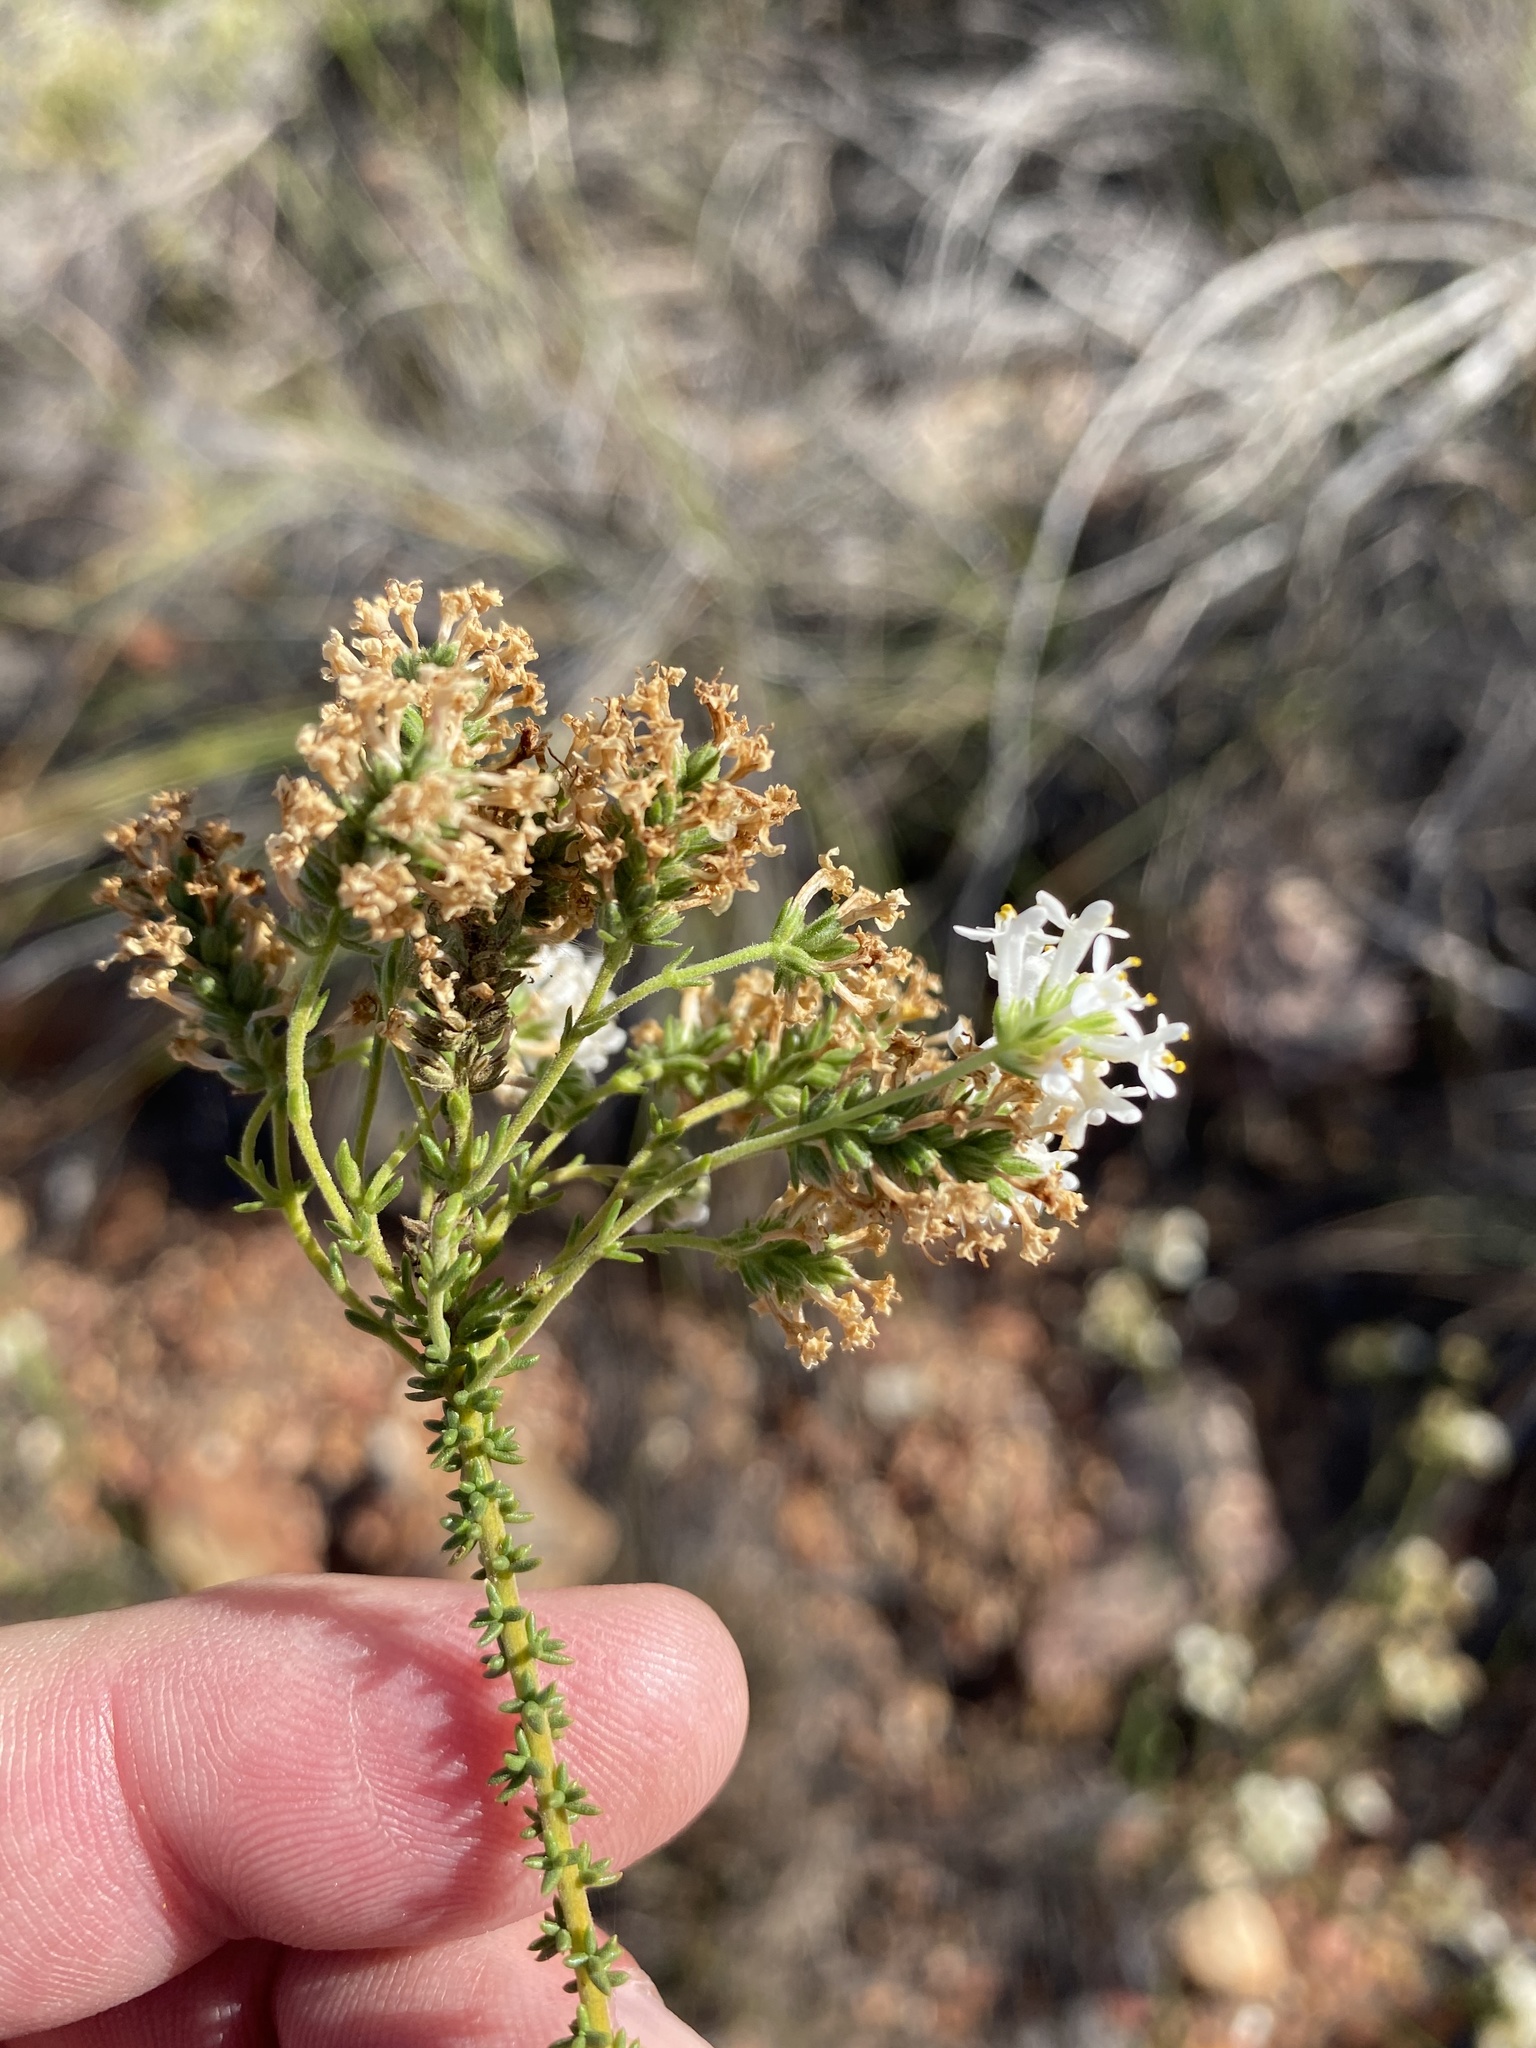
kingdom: Plantae
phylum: Tracheophyta
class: Magnoliopsida
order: Lamiales
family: Scrophulariaceae
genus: Selago
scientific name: Selago brevifolia
